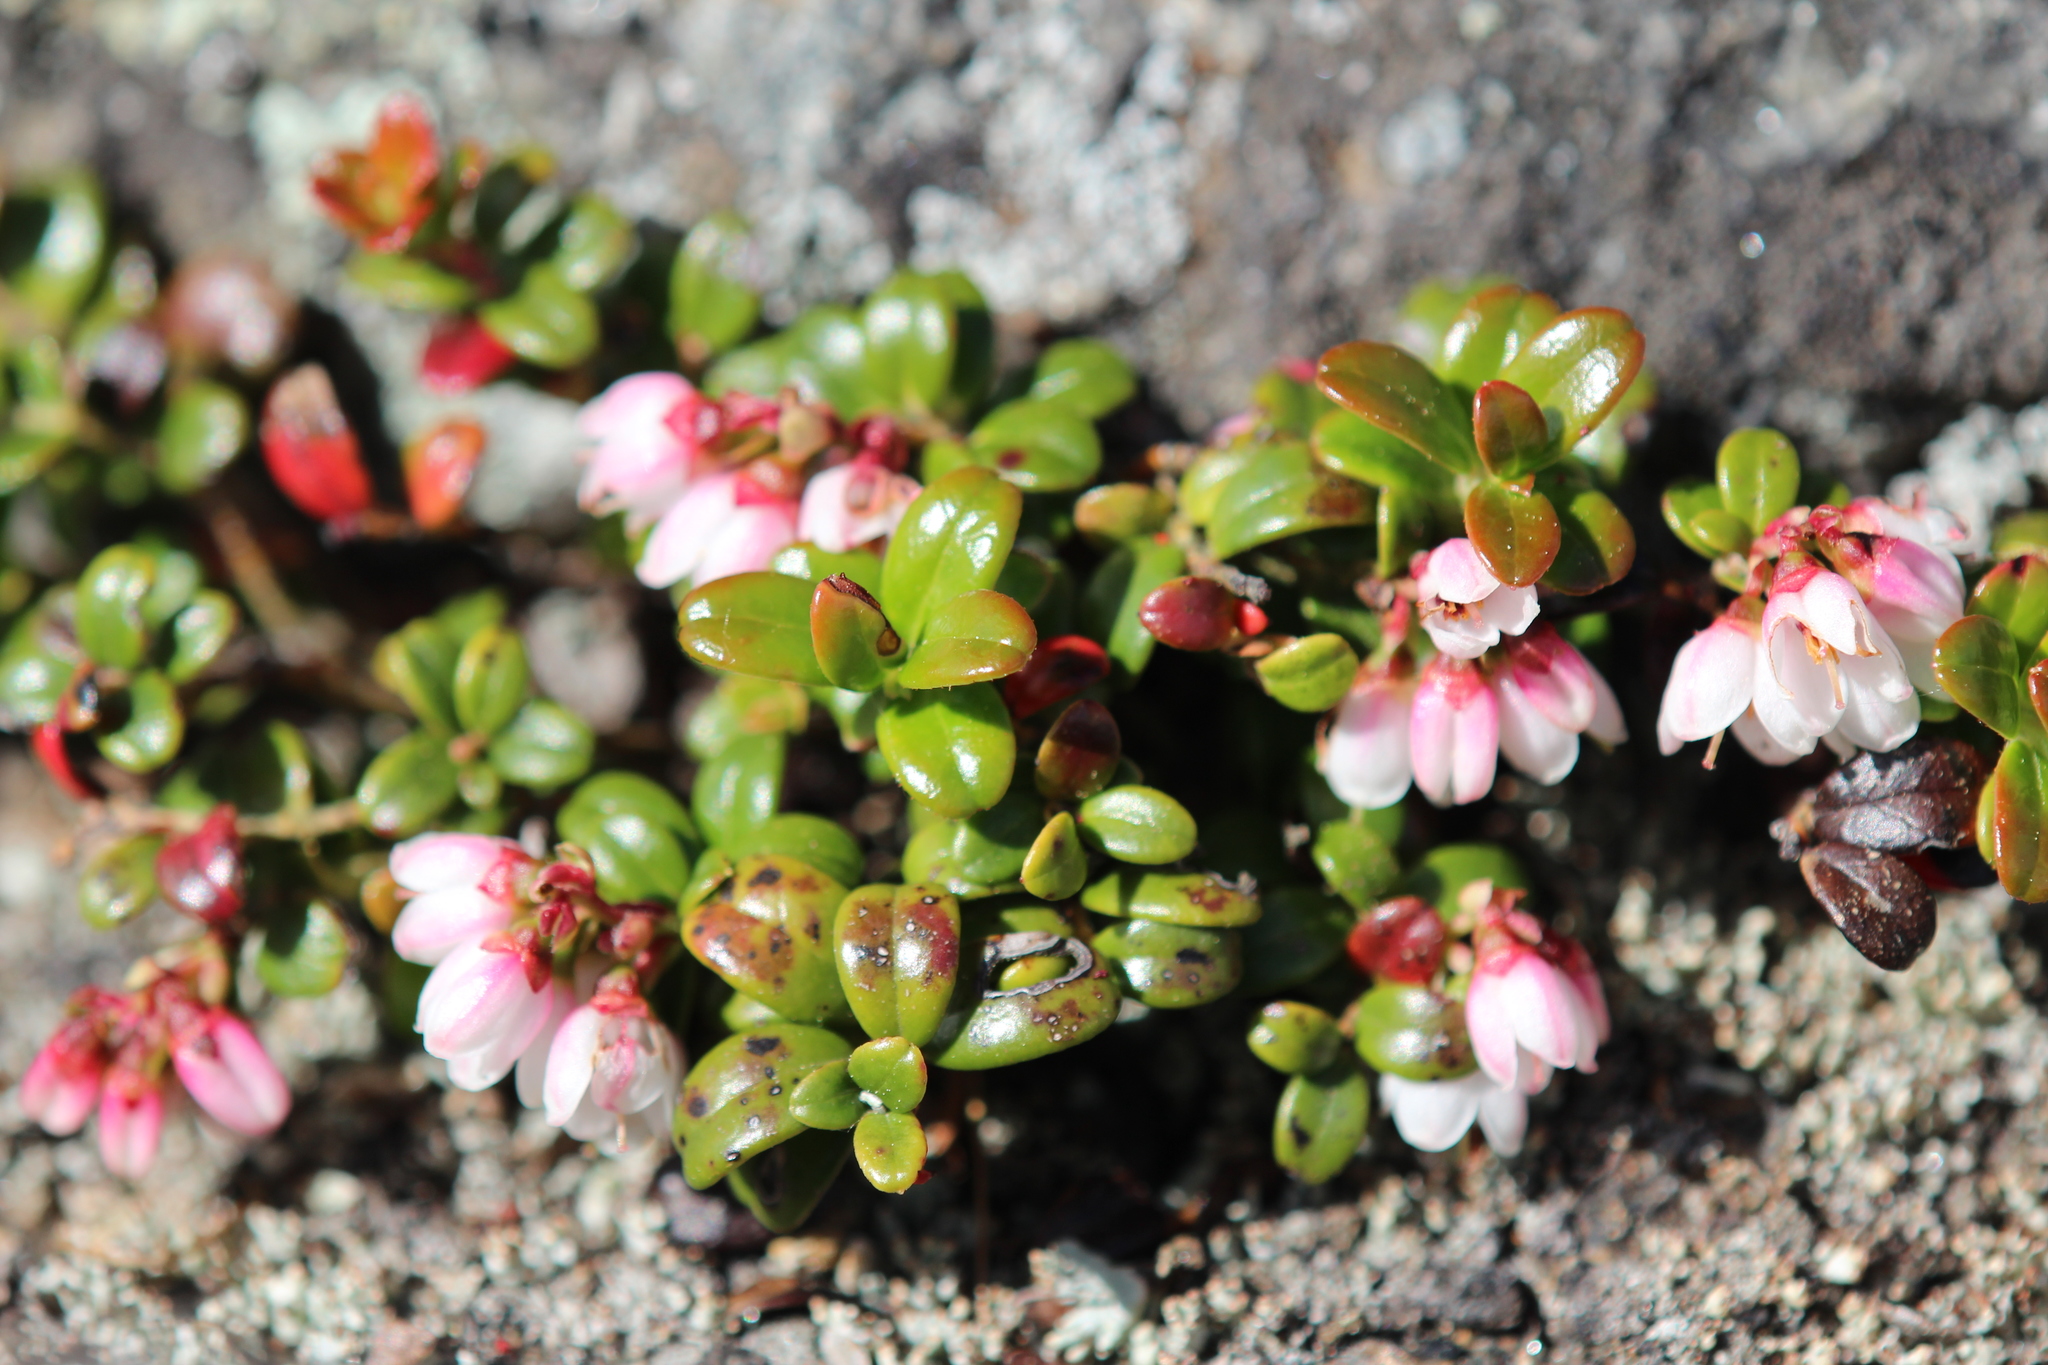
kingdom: Plantae
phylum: Tracheophyta
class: Magnoliopsida
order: Ericales
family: Ericaceae
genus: Vaccinium
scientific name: Vaccinium vitis-idaea
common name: Cowberry
